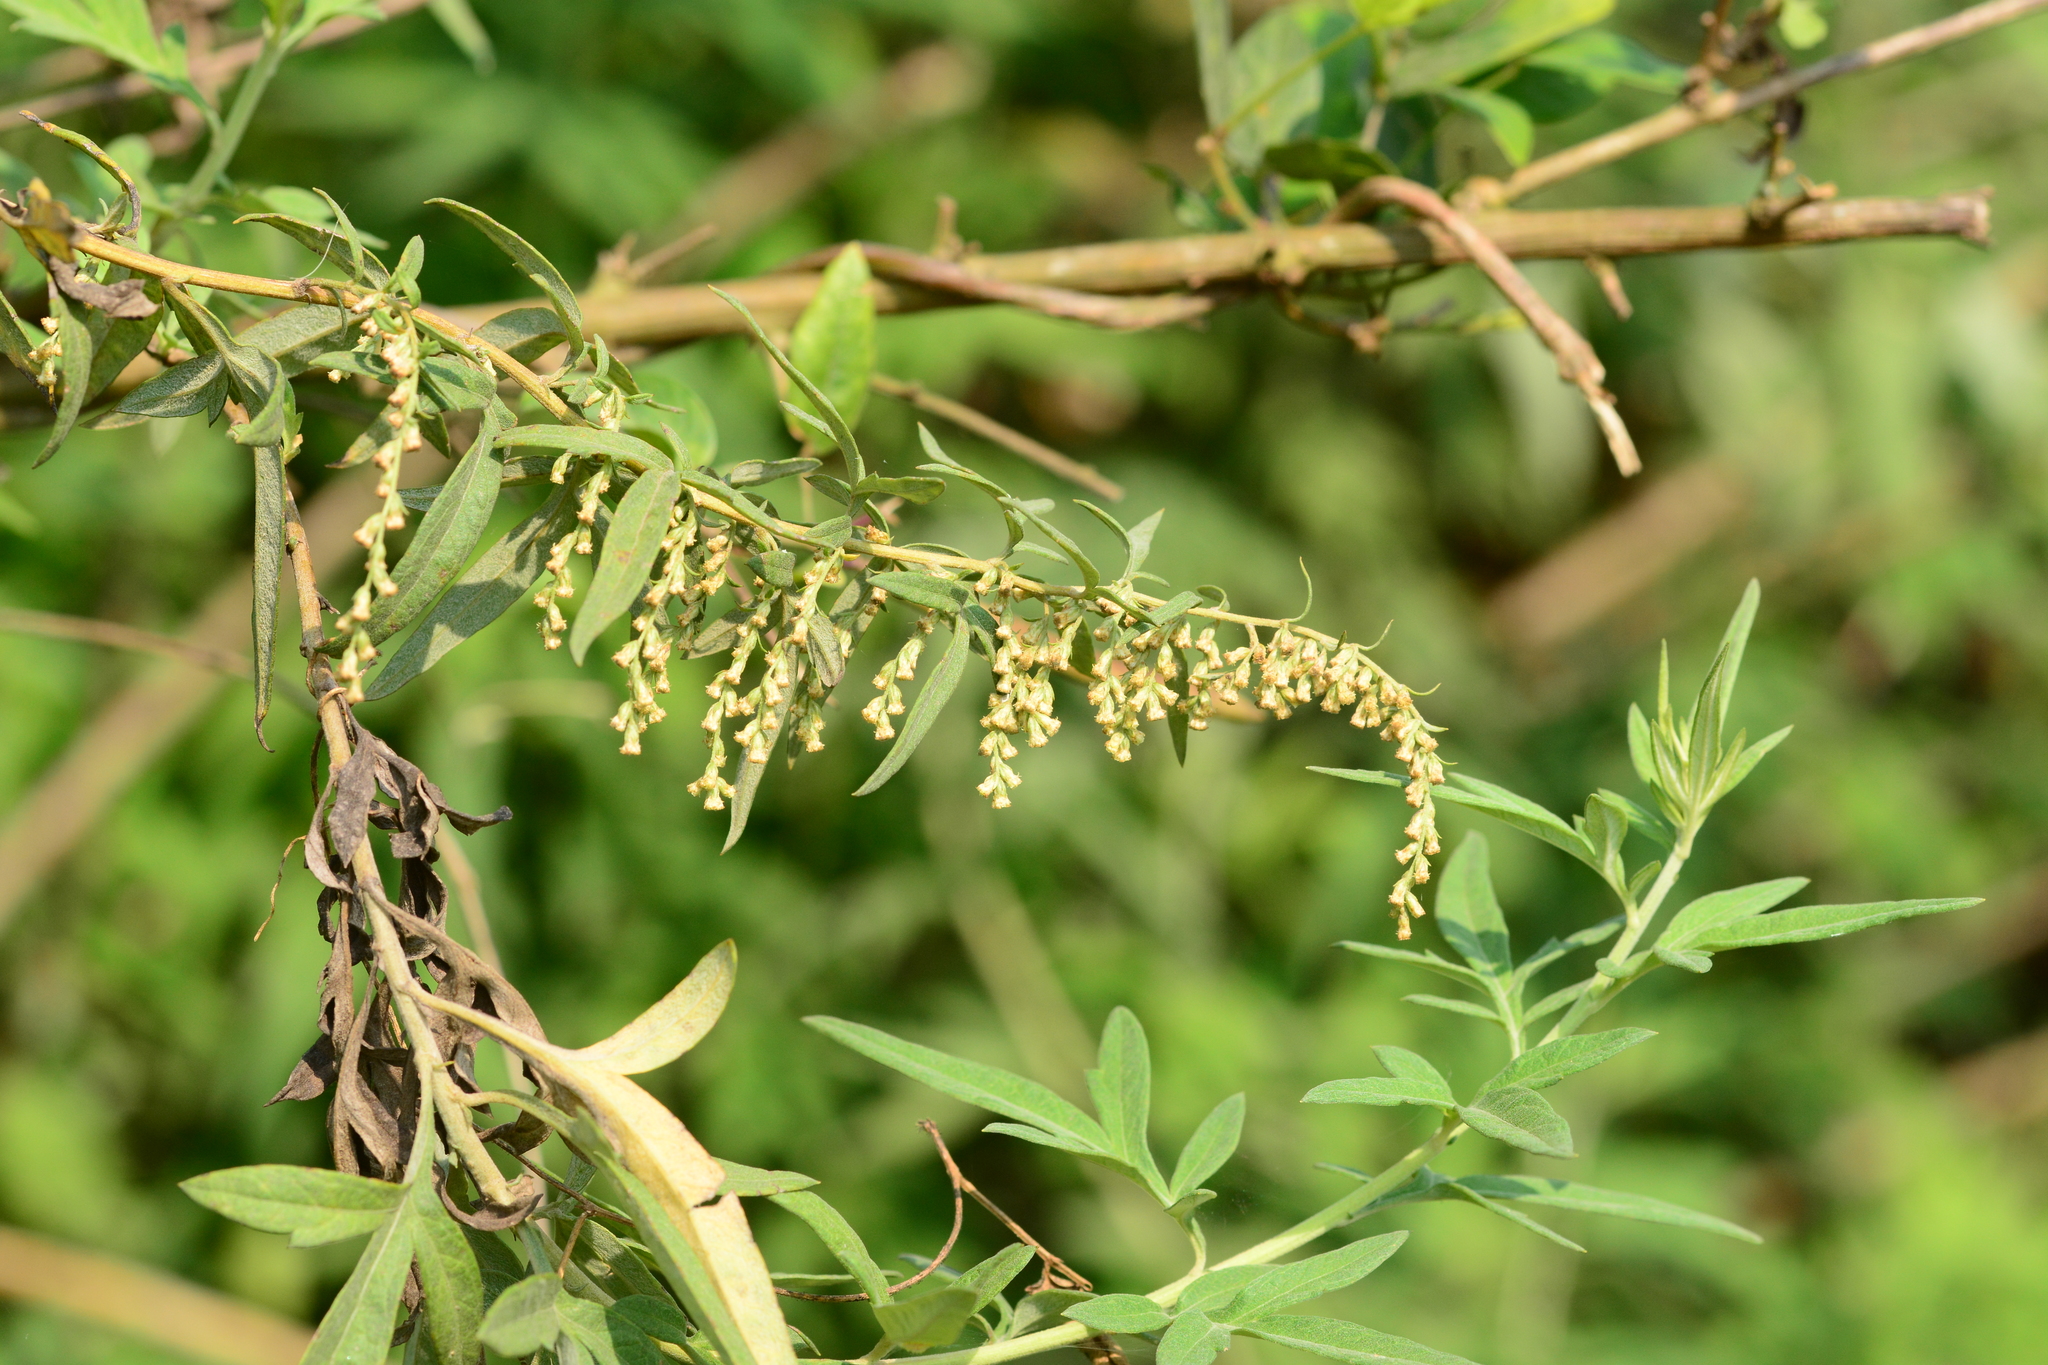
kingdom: Plantae
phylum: Tracheophyta
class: Magnoliopsida
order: Asterales
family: Asteraceae
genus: Artemisia
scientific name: Artemisia nilagirica
